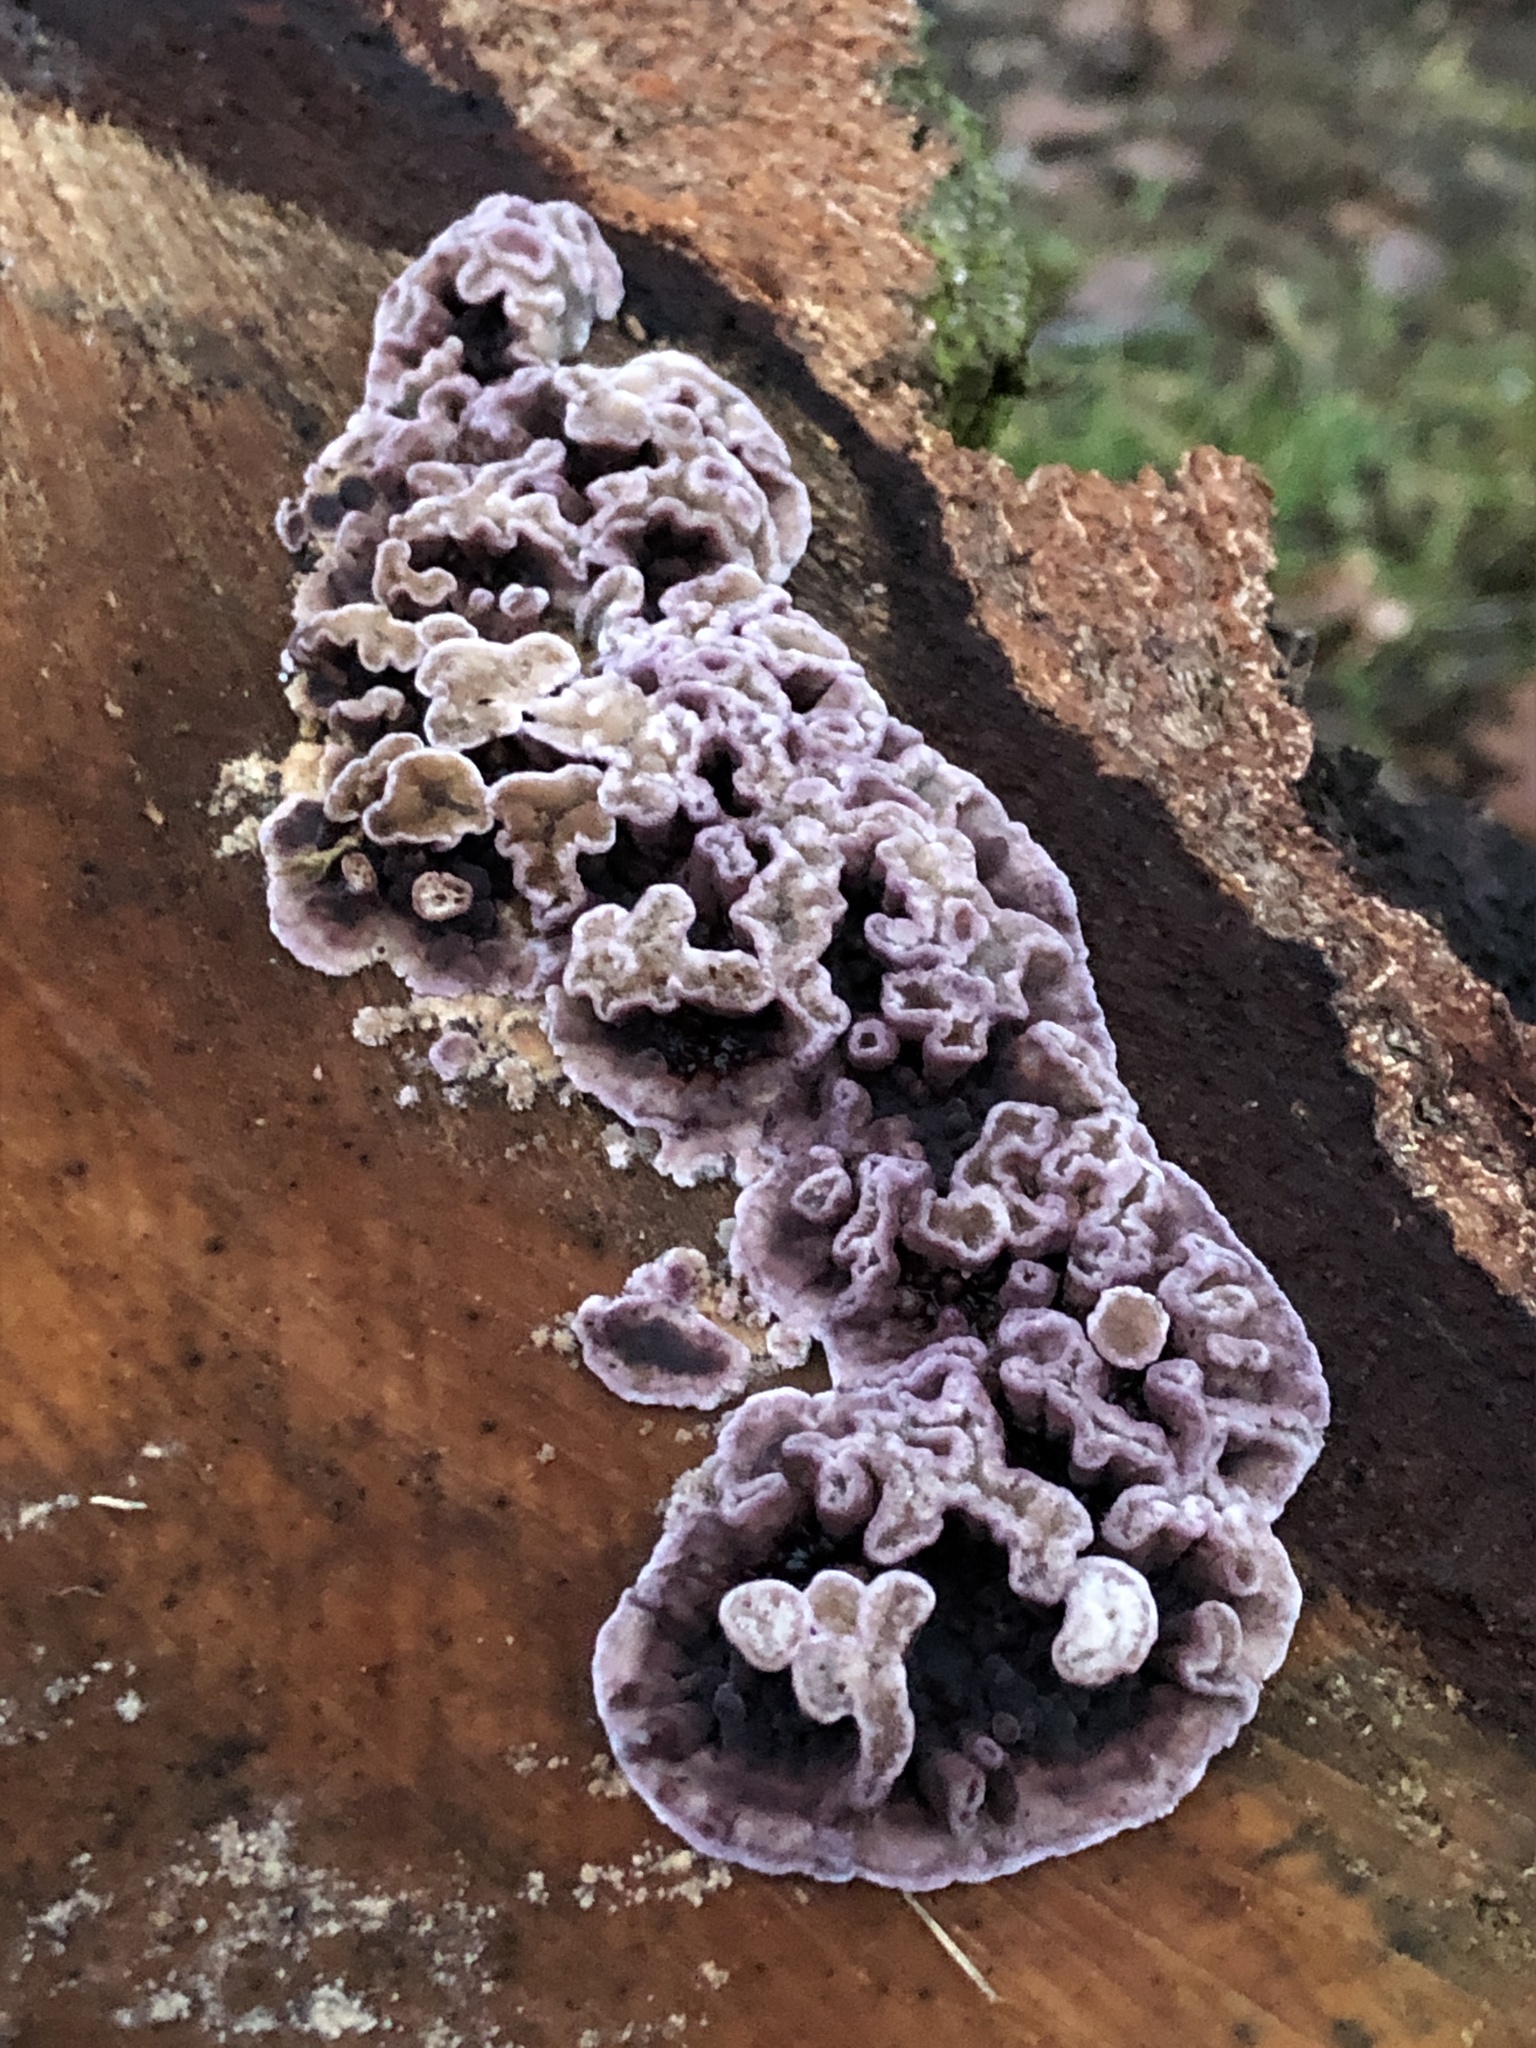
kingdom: Fungi
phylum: Basidiomycota
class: Agaricomycetes
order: Agaricales
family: Cyphellaceae
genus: Chondrostereum
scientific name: Chondrostereum purpureum
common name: Silver leaf disease
